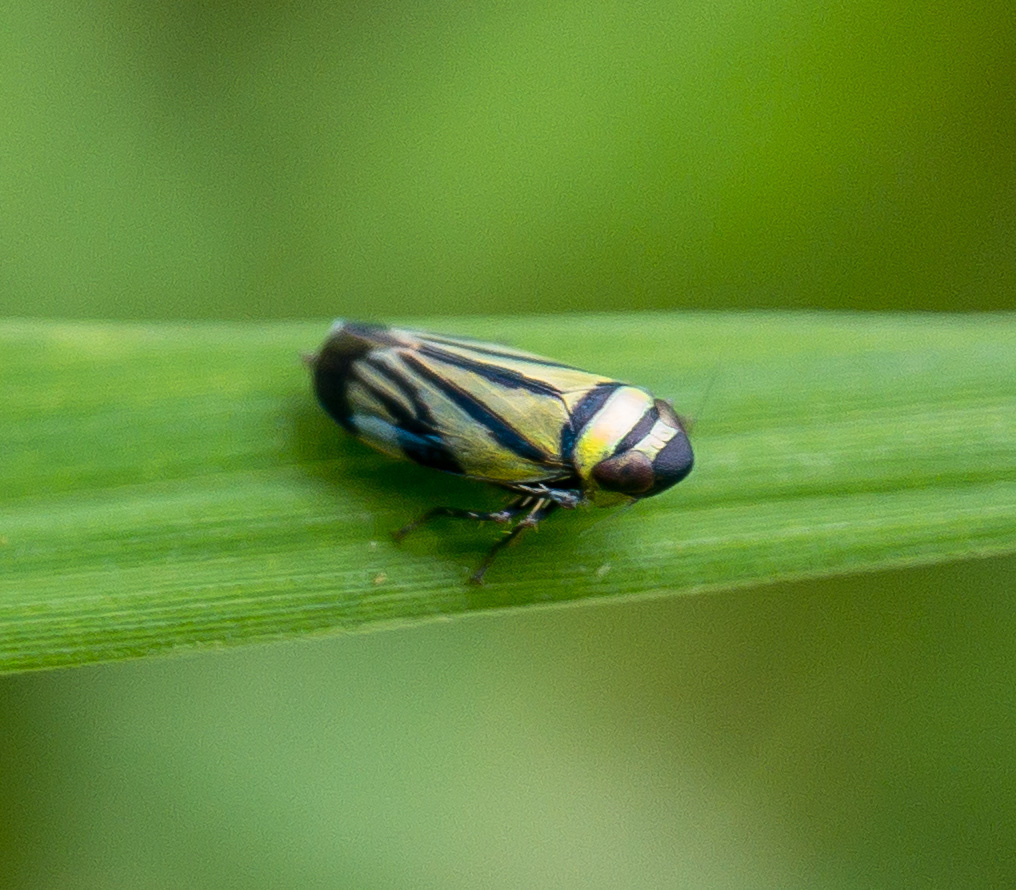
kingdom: Animalia
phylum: Arthropoda
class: Insecta
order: Hemiptera
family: Cicadellidae
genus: Stirellus
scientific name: Stirellus bicolor
